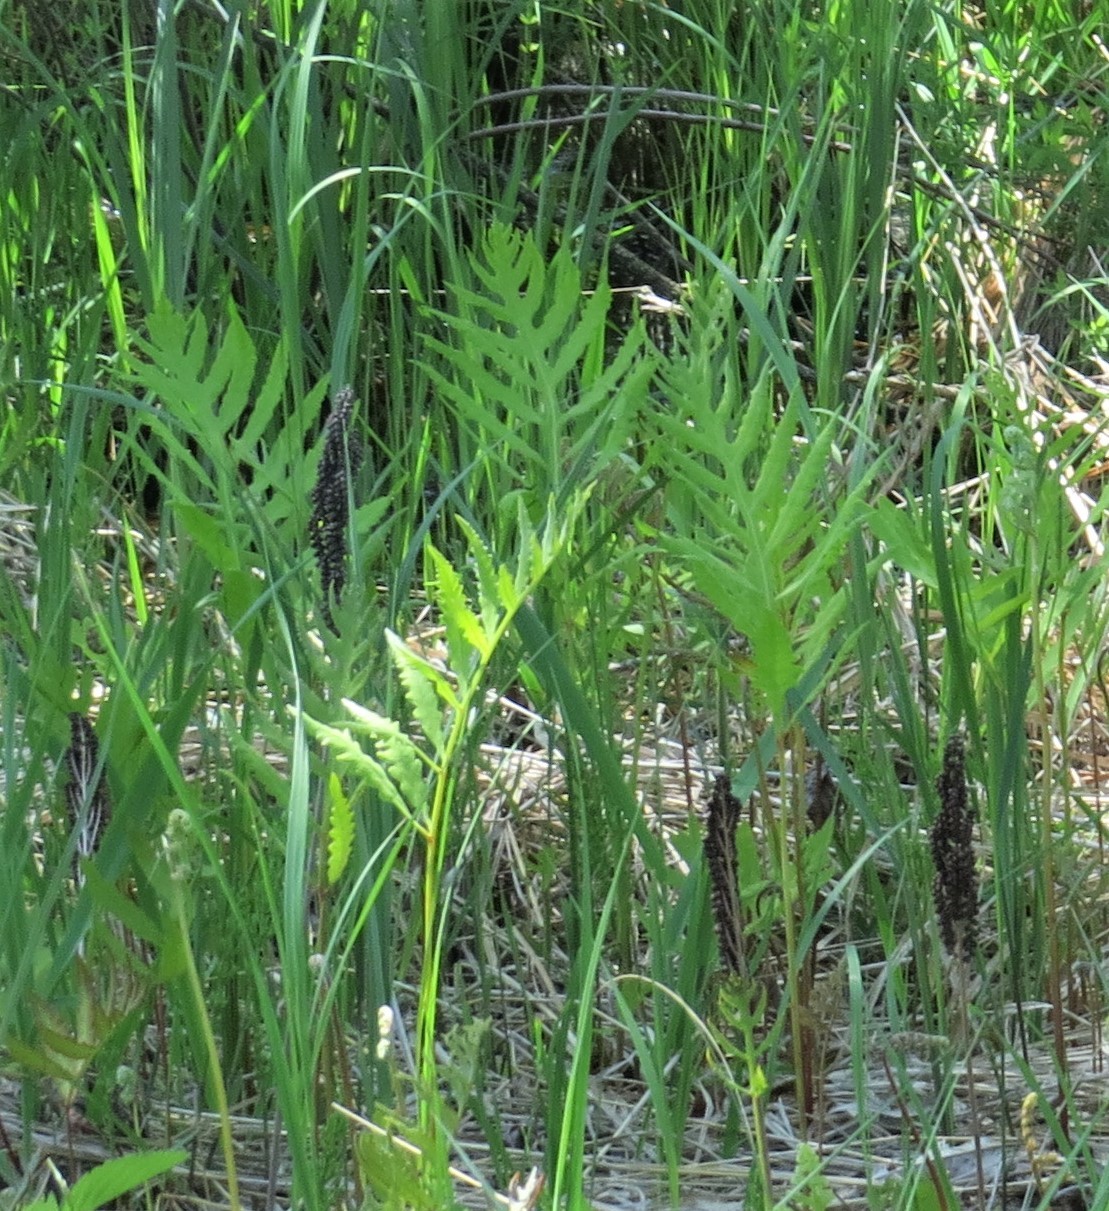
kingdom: Plantae
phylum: Tracheophyta
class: Polypodiopsida
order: Polypodiales
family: Onocleaceae
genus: Onoclea
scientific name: Onoclea sensibilis
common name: Sensitive fern
